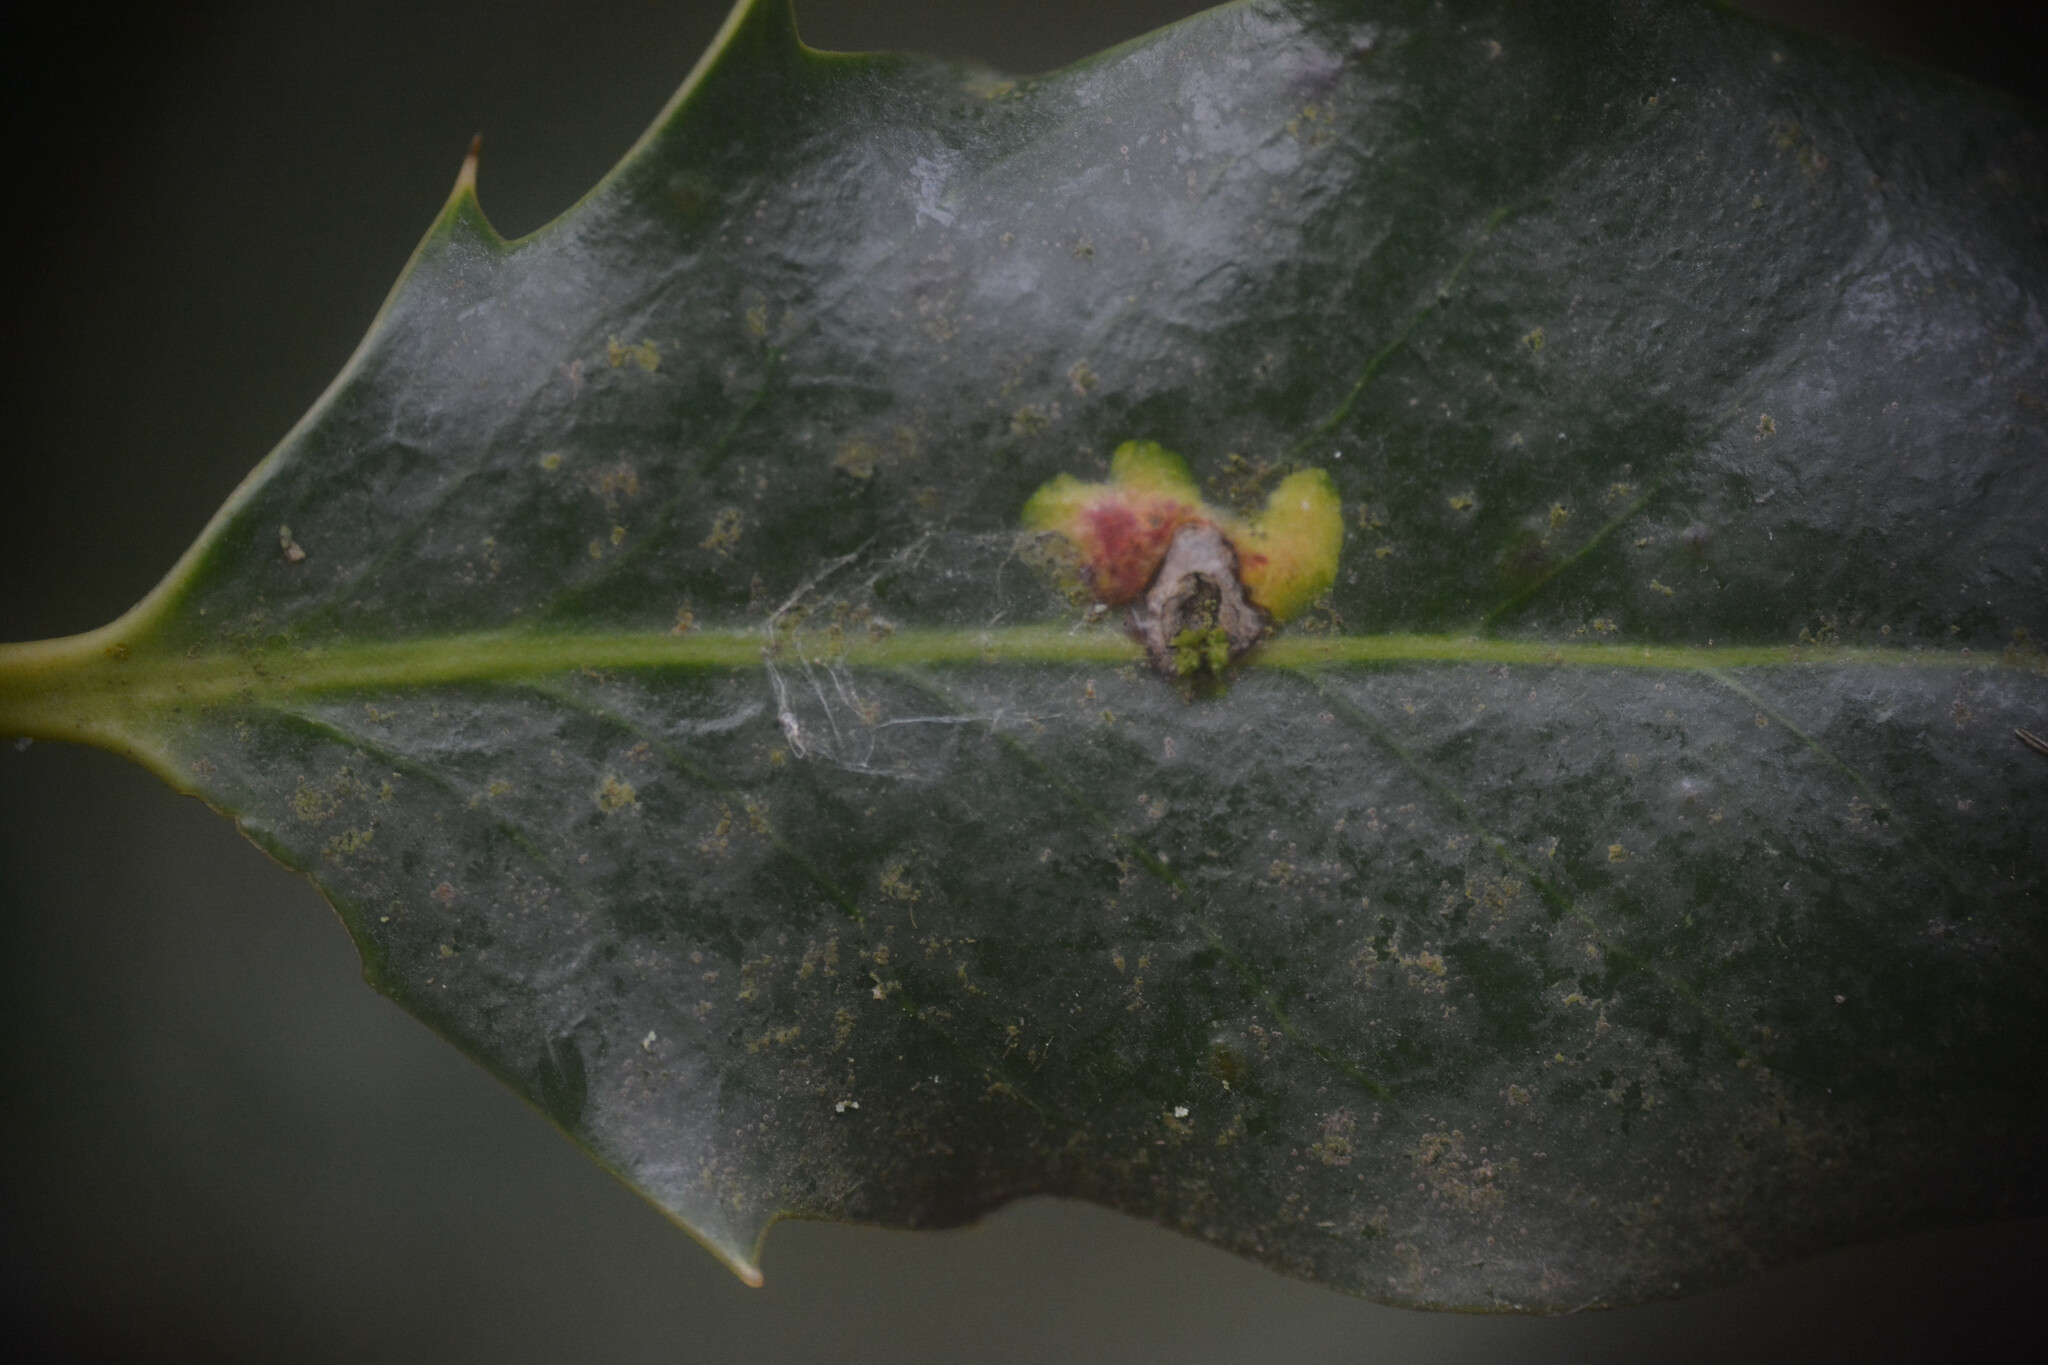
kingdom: Animalia
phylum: Arthropoda
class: Insecta
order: Diptera
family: Agromyzidae
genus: Phytomyza
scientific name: Phytomyza ilicis
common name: Holly leafminer
